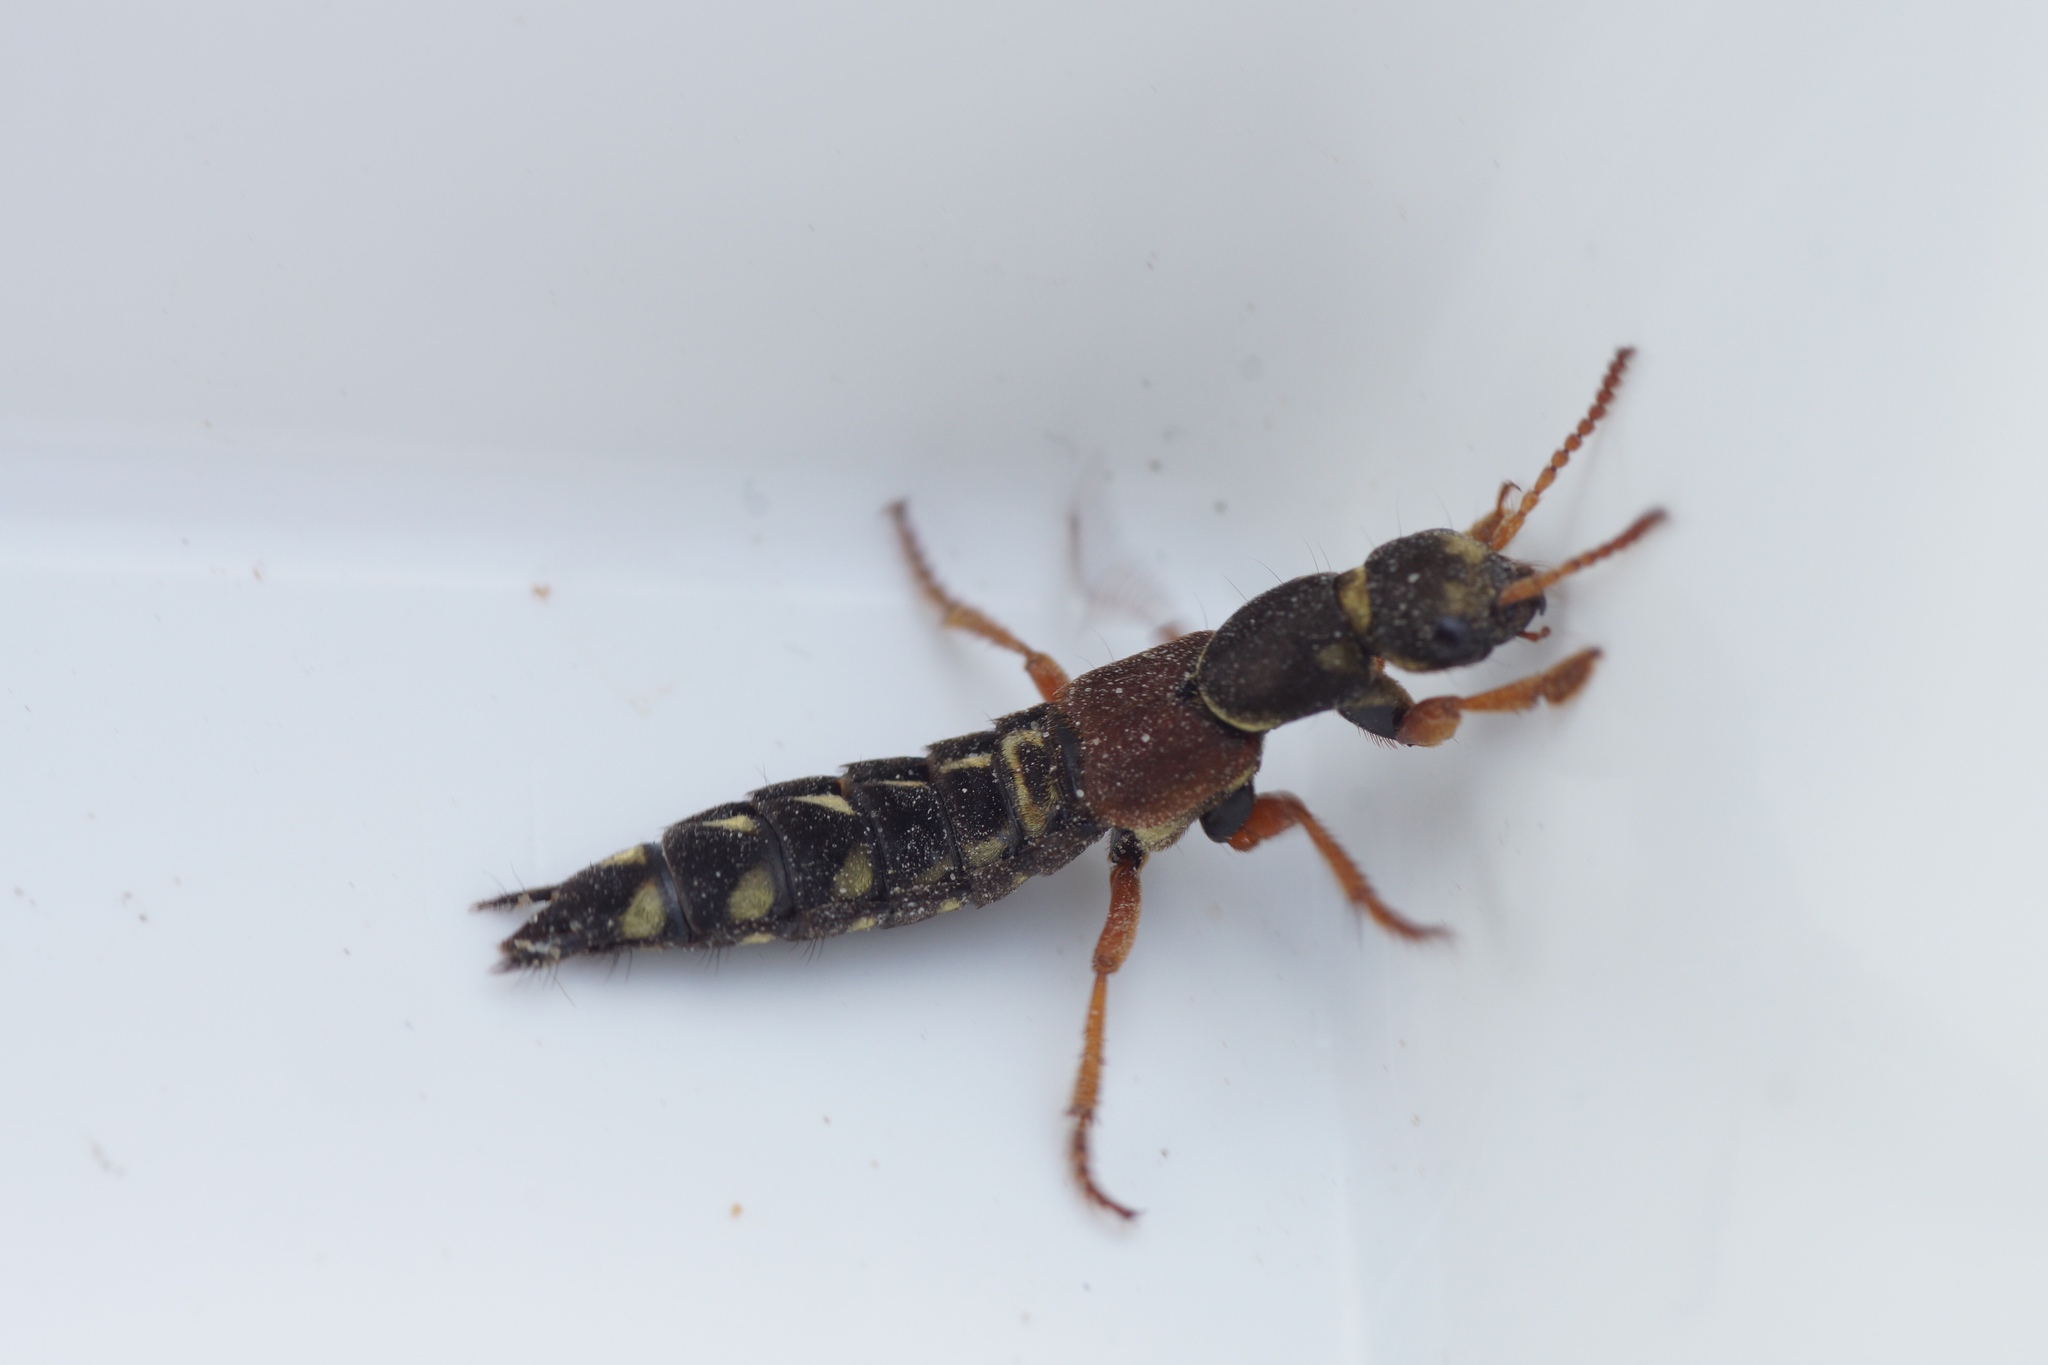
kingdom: Animalia
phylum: Arthropoda
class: Insecta
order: Coleoptera
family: Staphylinidae
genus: Staphylinus
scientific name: Staphylinus caesareus
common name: Staph beetle
